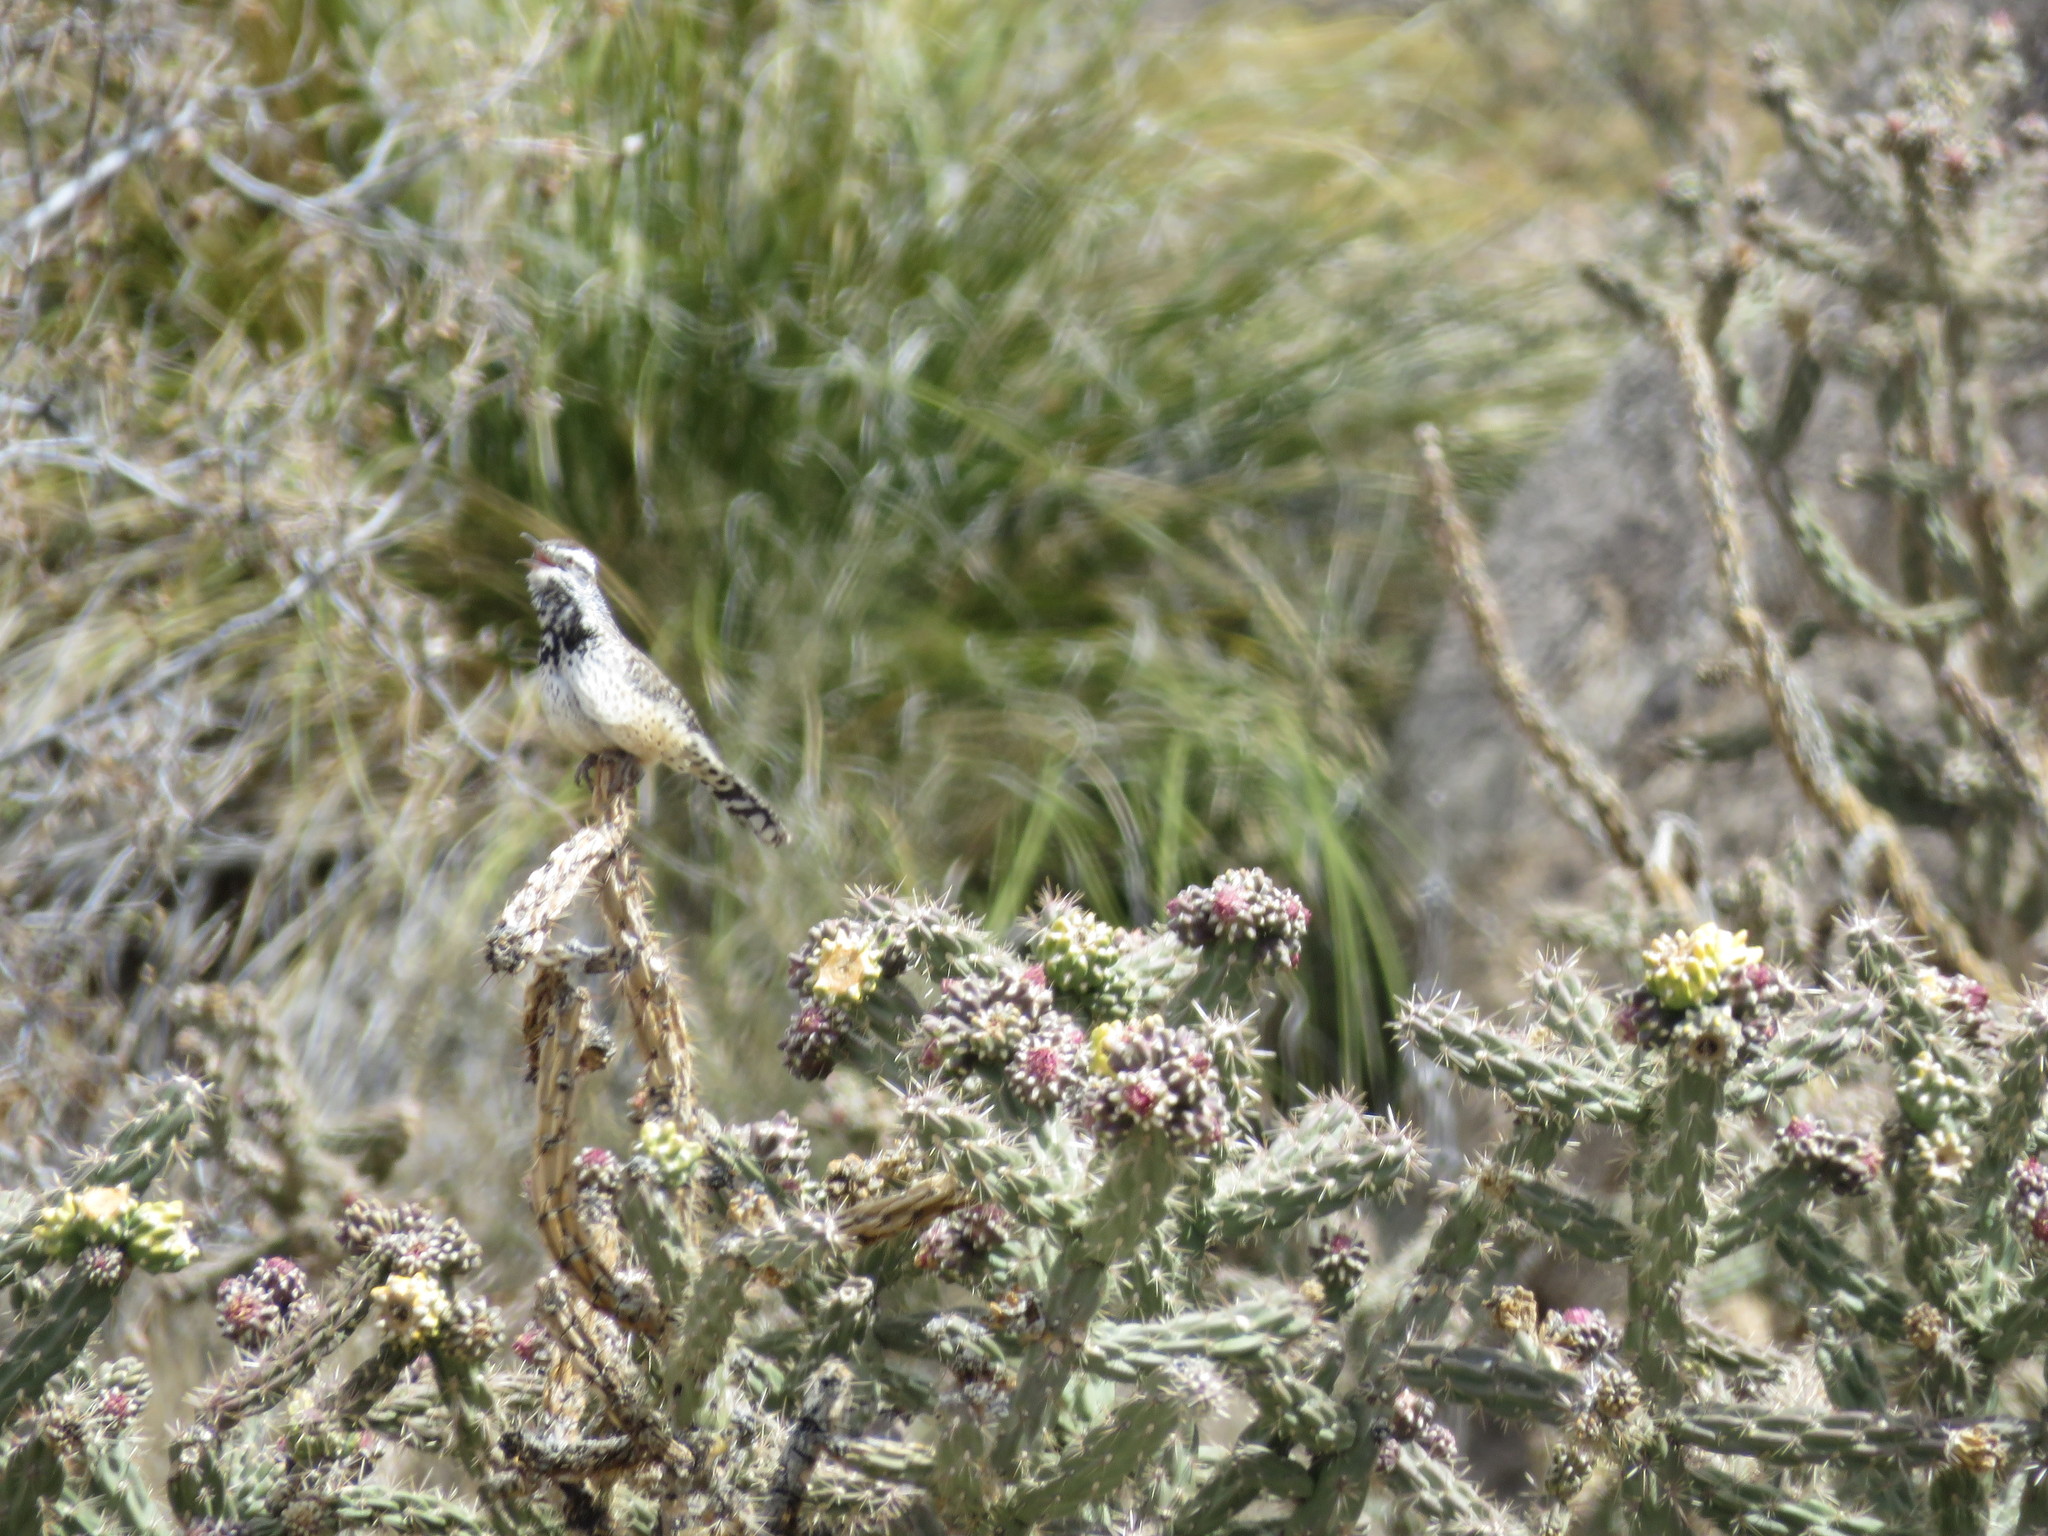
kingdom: Animalia
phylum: Chordata
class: Aves
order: Passeriformes
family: Troglodytidae
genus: Campylorhynchus
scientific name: Campylorhynchus brunneicapillus
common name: Cactus wren
